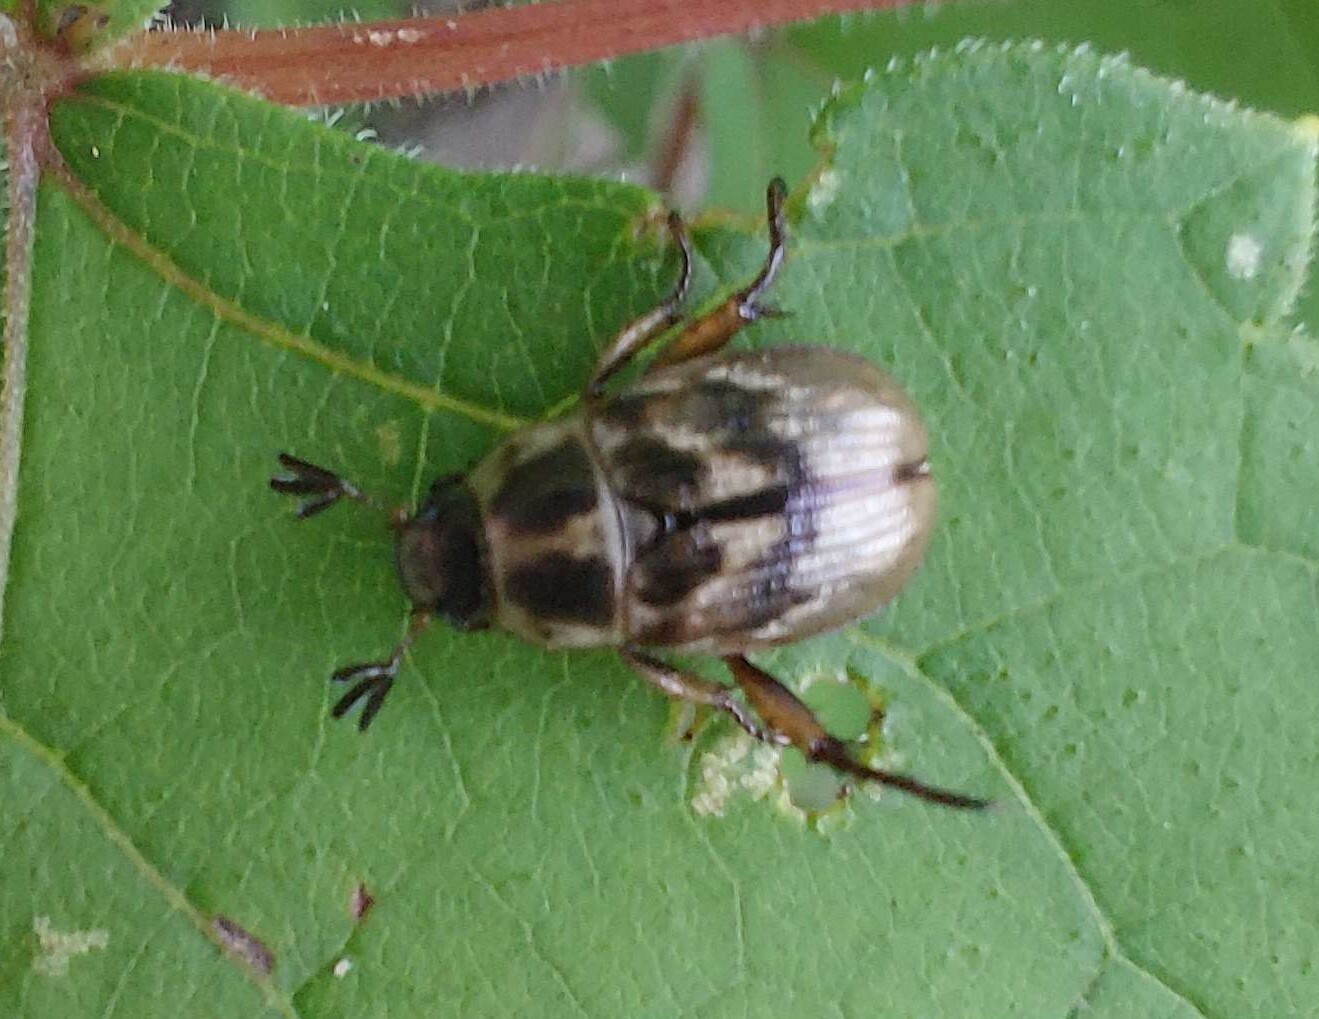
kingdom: Animalia
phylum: Arthropoda
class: Insecta
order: Coleoptera
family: Scarabaeidae
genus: Exomala
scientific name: Exomala orientalis
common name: Oriental beetle
